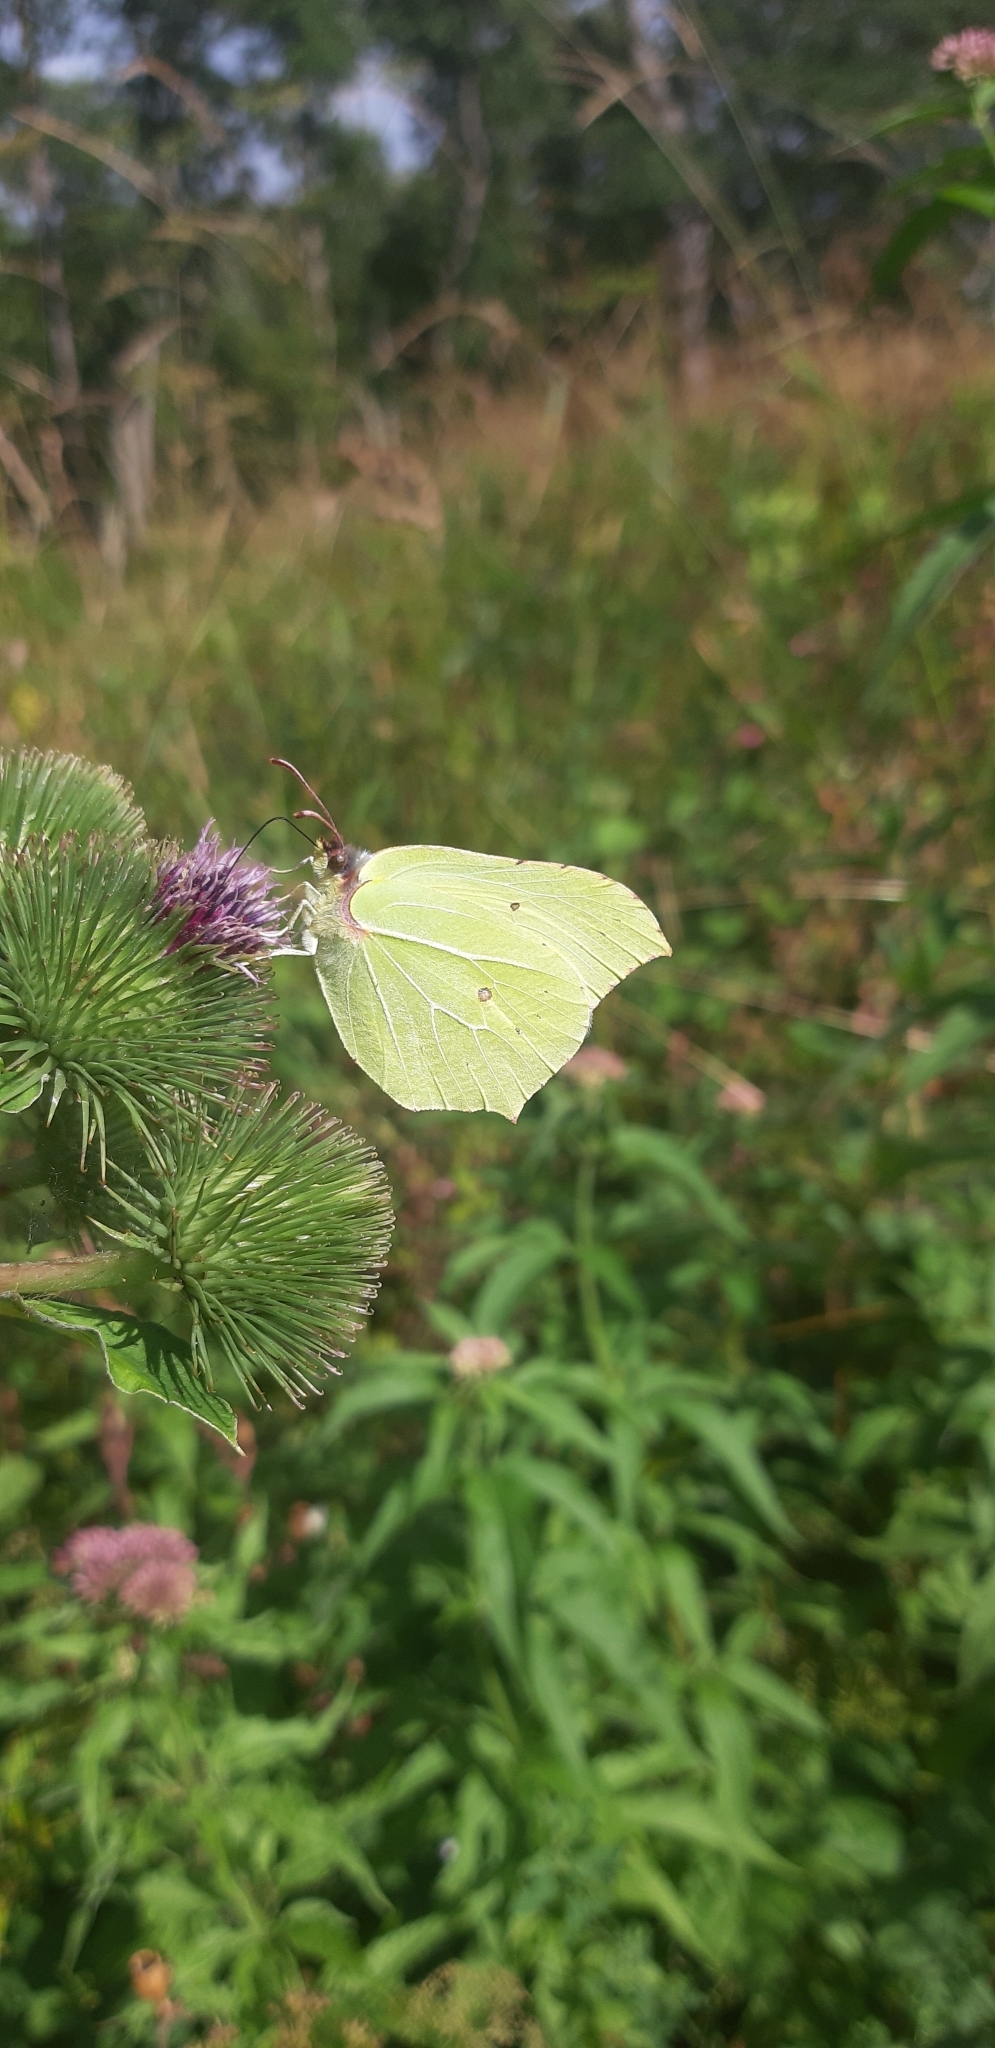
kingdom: Animalia
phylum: Arthropoda
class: Insecta
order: Lepidoptera
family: Pieridae
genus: Gonepteryx
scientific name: Gonepteryx rhamni
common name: Brimstone
